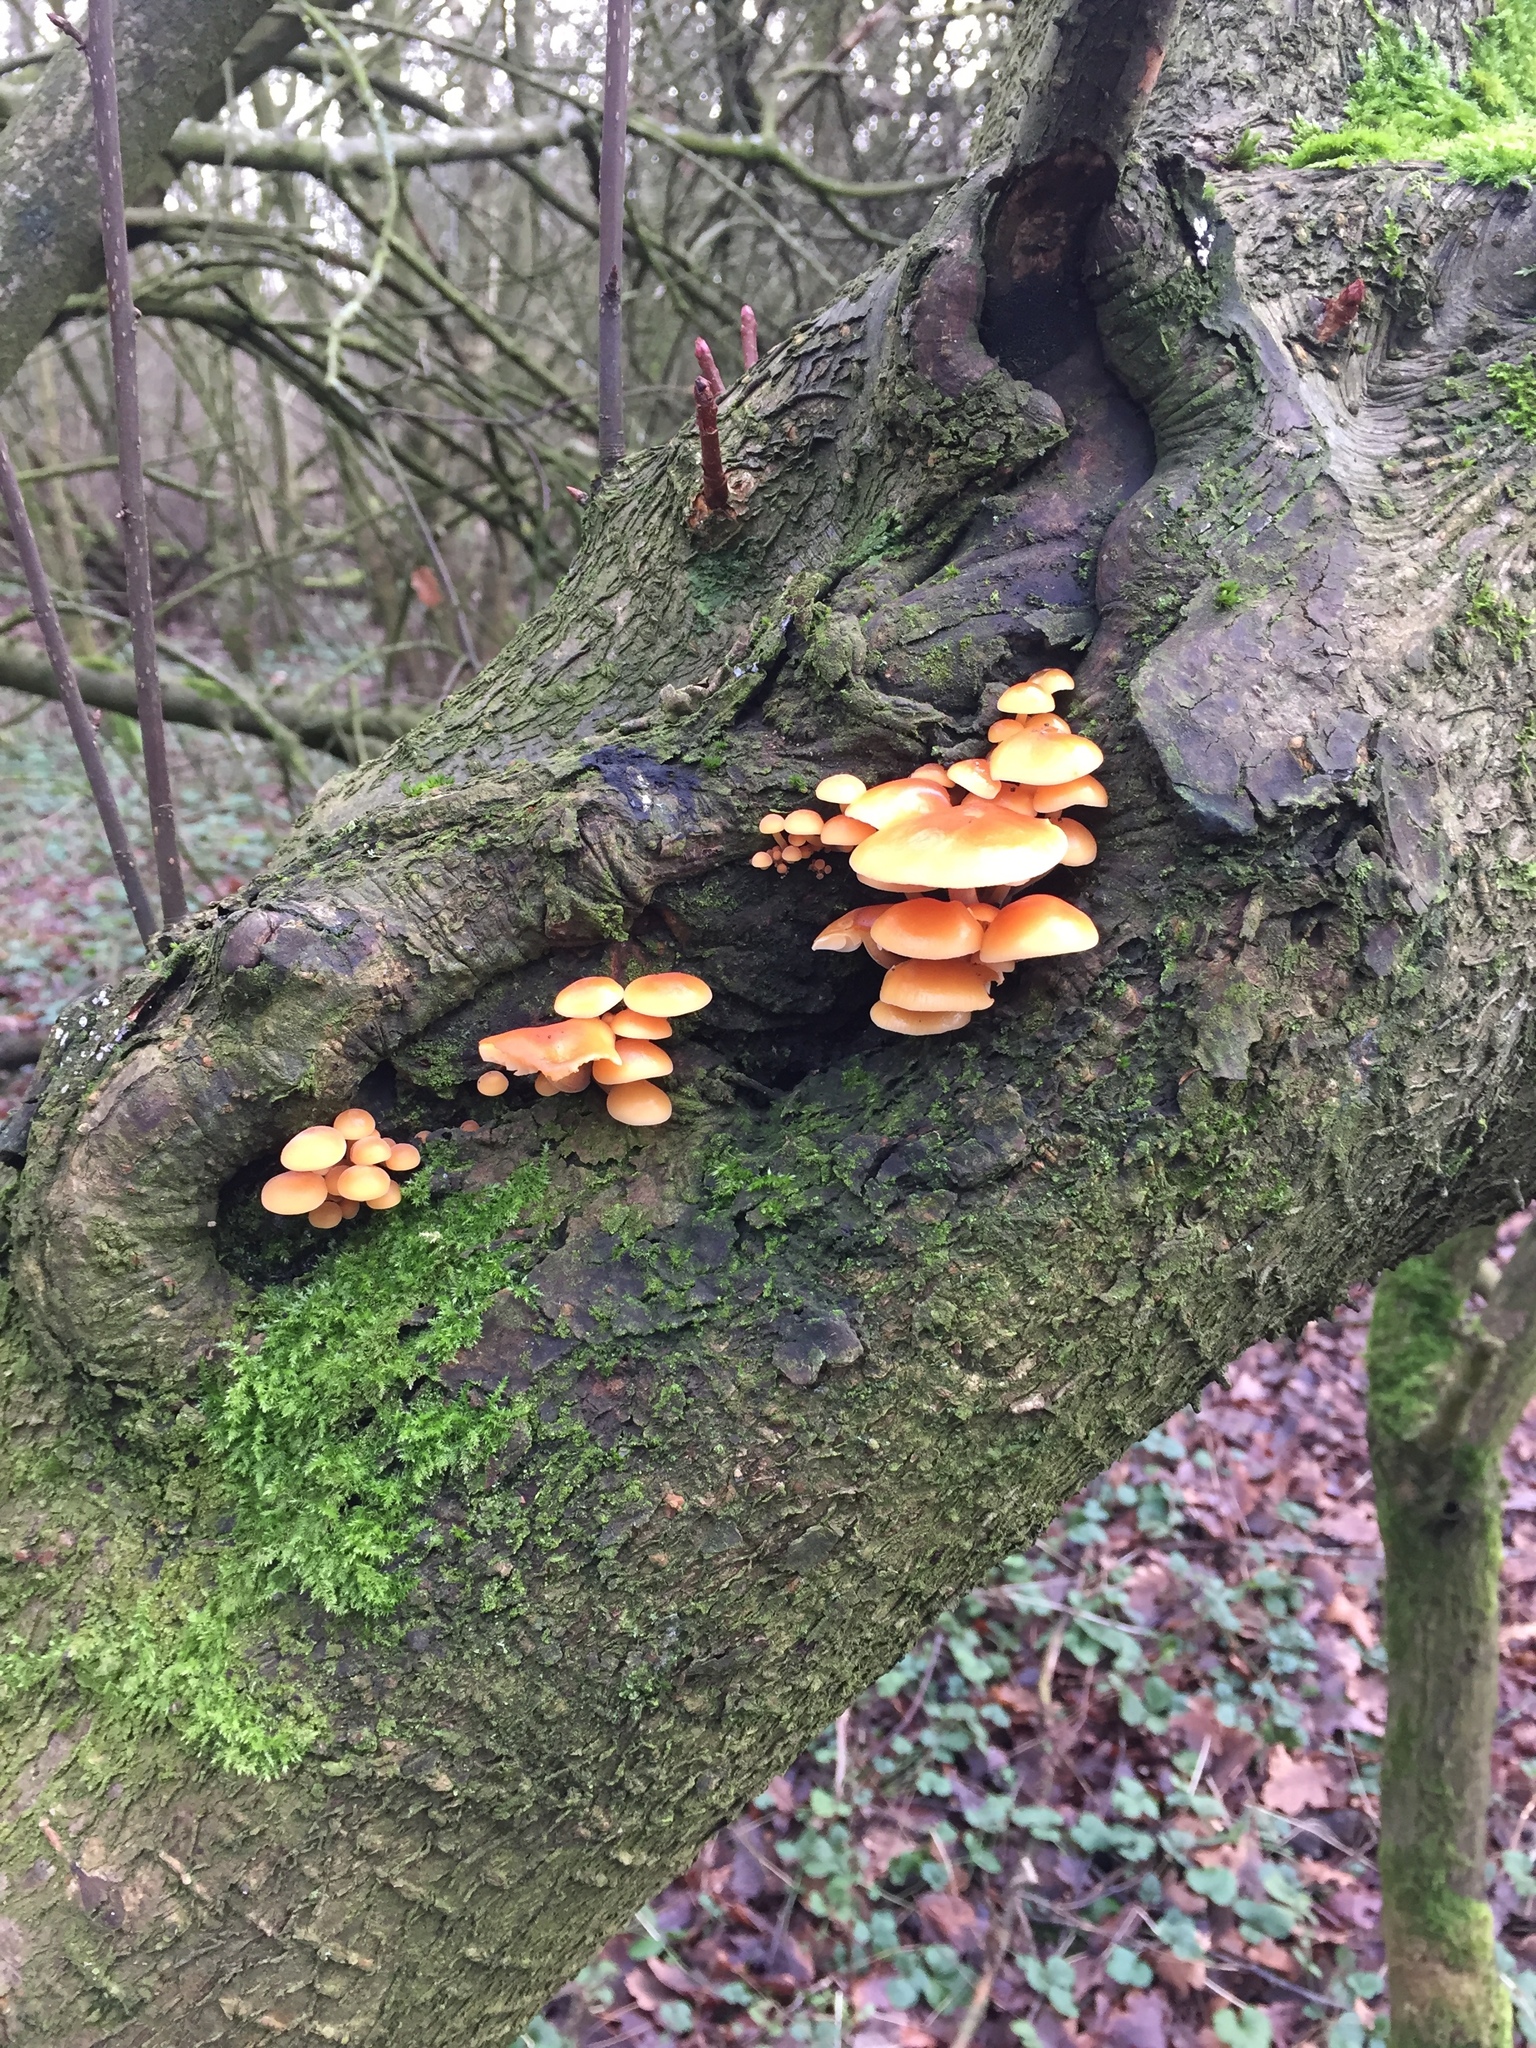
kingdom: Fungi
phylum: Basidiomycota
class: Agaricomycetes
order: Agaricales
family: Physalacriaceae
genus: Flammulina
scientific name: Flammulina
